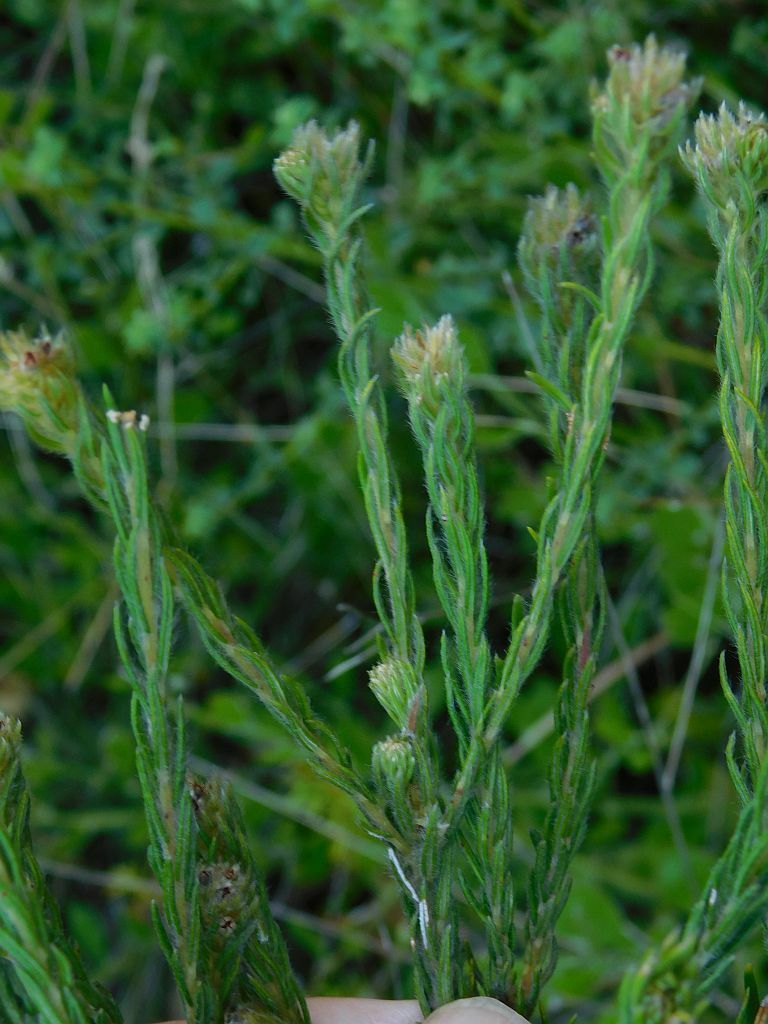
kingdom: Plantae
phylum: Tracheophyta
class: Magnoliopsida
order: Rosales
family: Rhamnaceae
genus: Phylica
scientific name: Phylica excelsa
